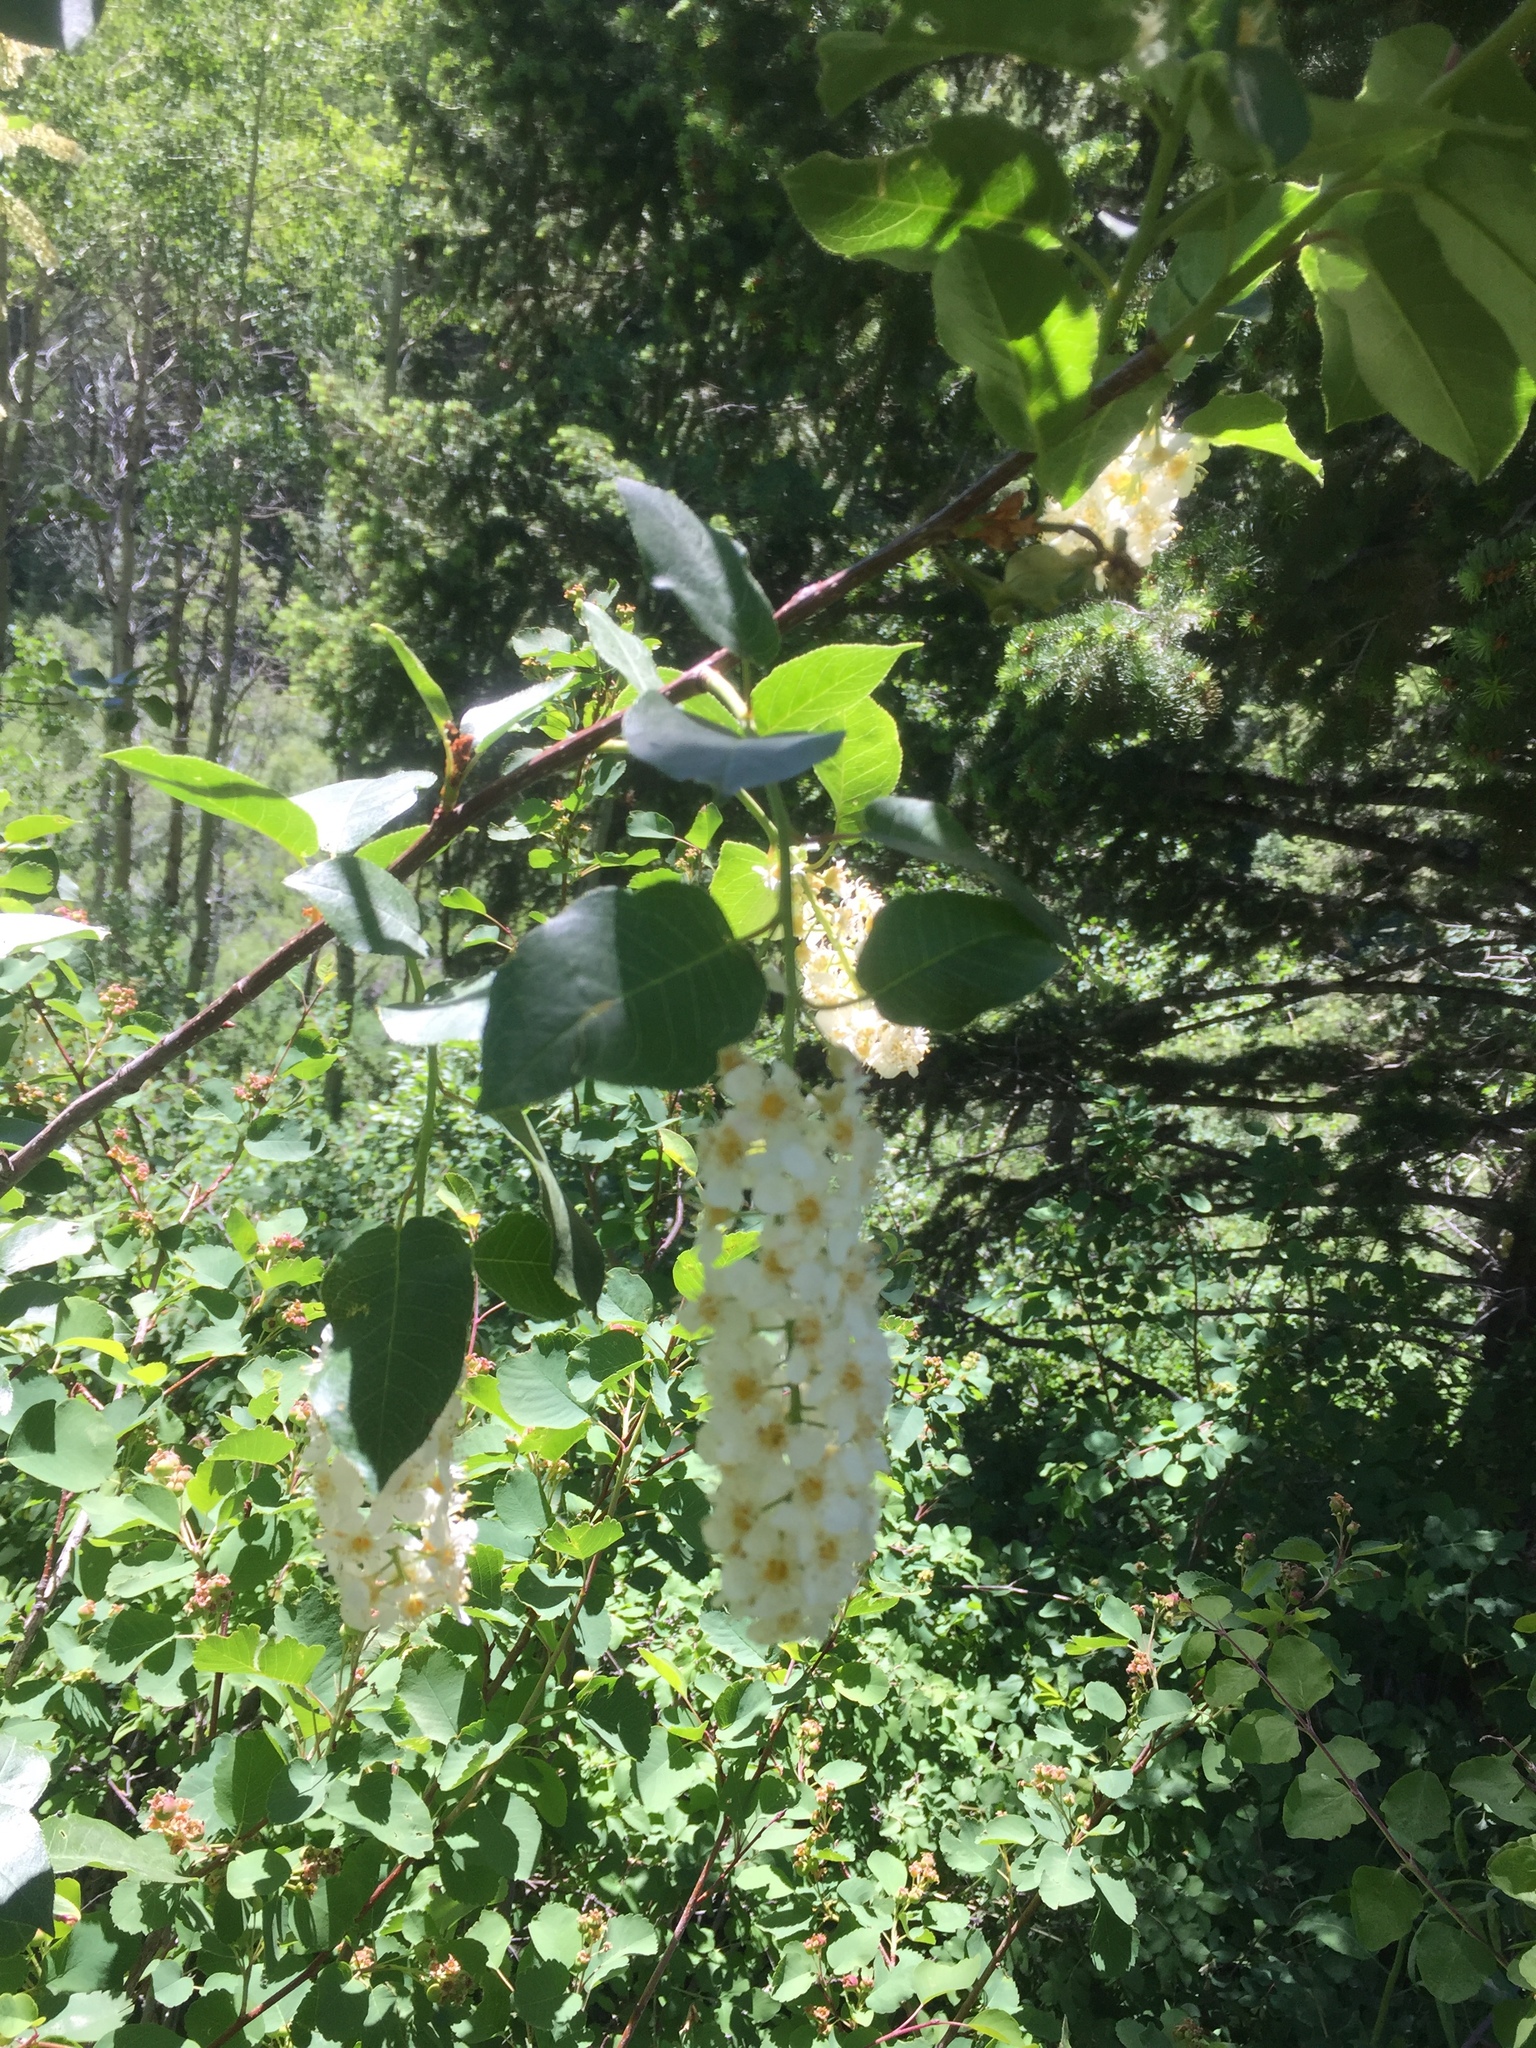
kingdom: Plantae
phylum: Tracheophyta
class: Magnoliopsida
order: Rosales
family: Rosaceae
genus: Prunus
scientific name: Prunus virginiana
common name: Chokecherry
